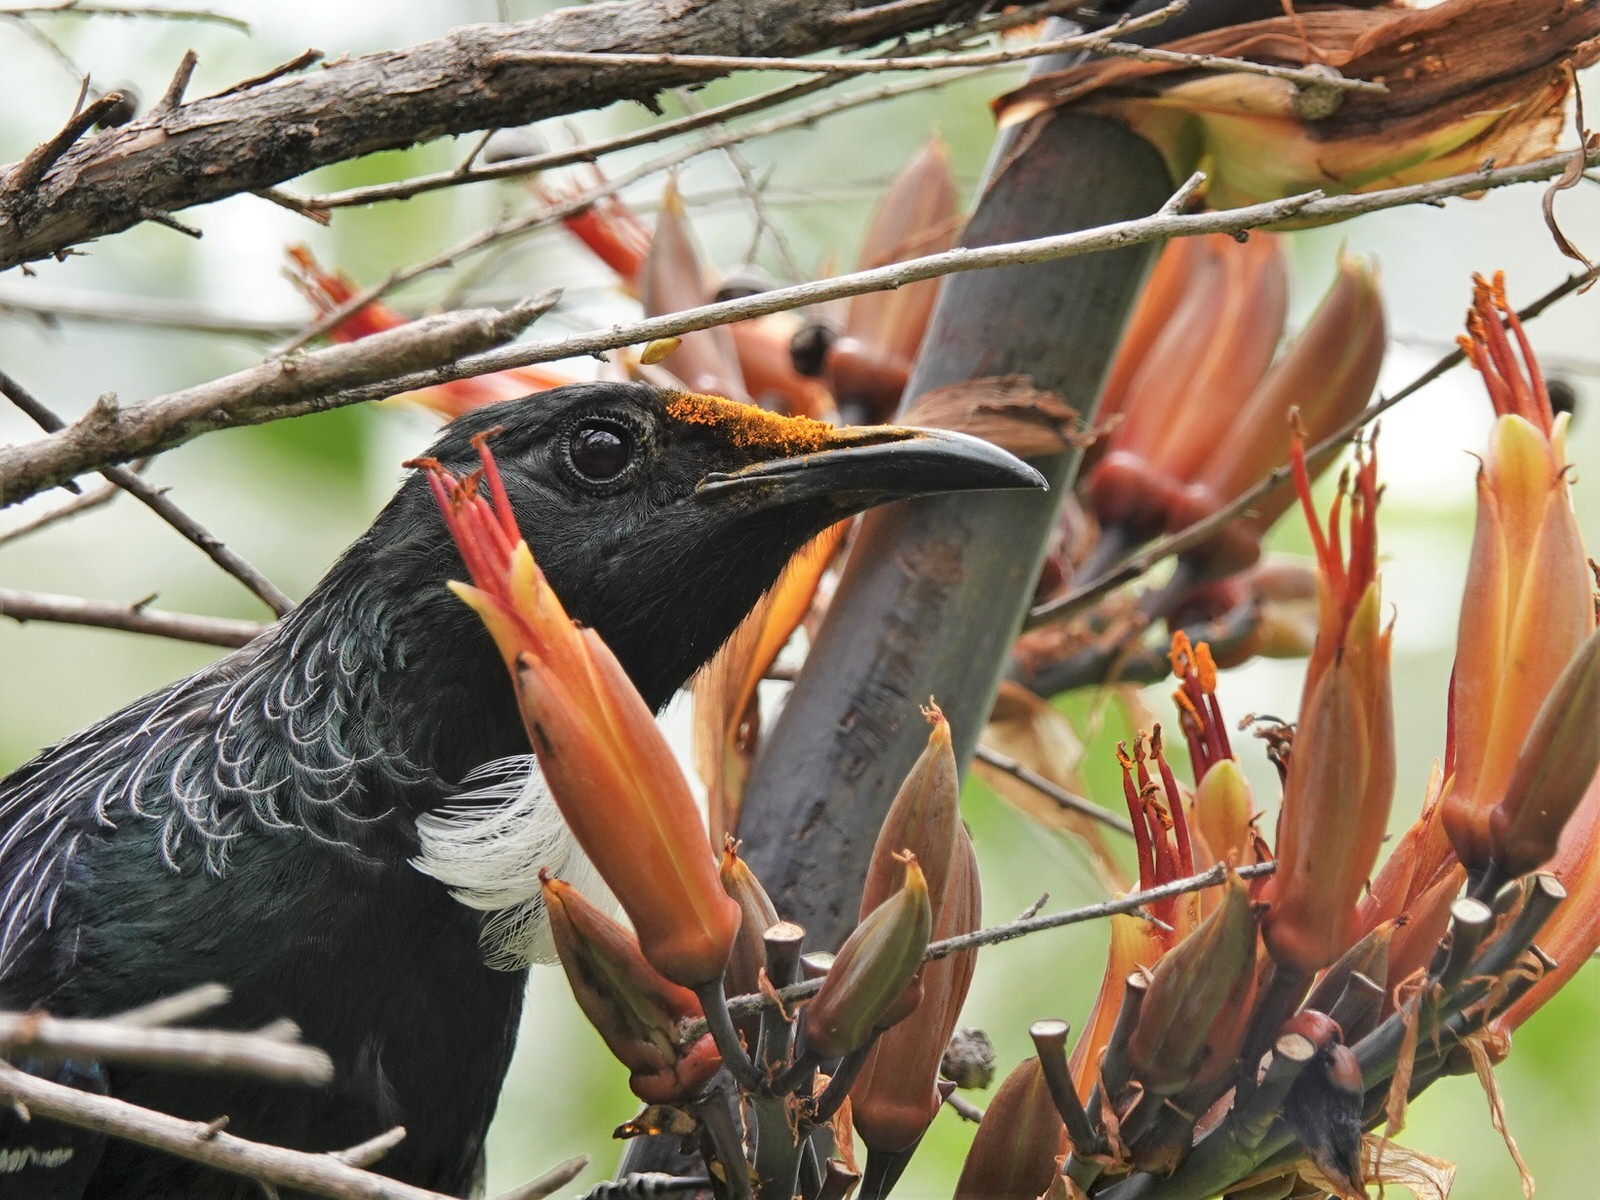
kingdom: Animalia
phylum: Chordata
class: Aves
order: Passeriformes
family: Meliphagidae
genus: Prosthemadera
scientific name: Prosthemadera novaeseelandiae
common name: Tui
